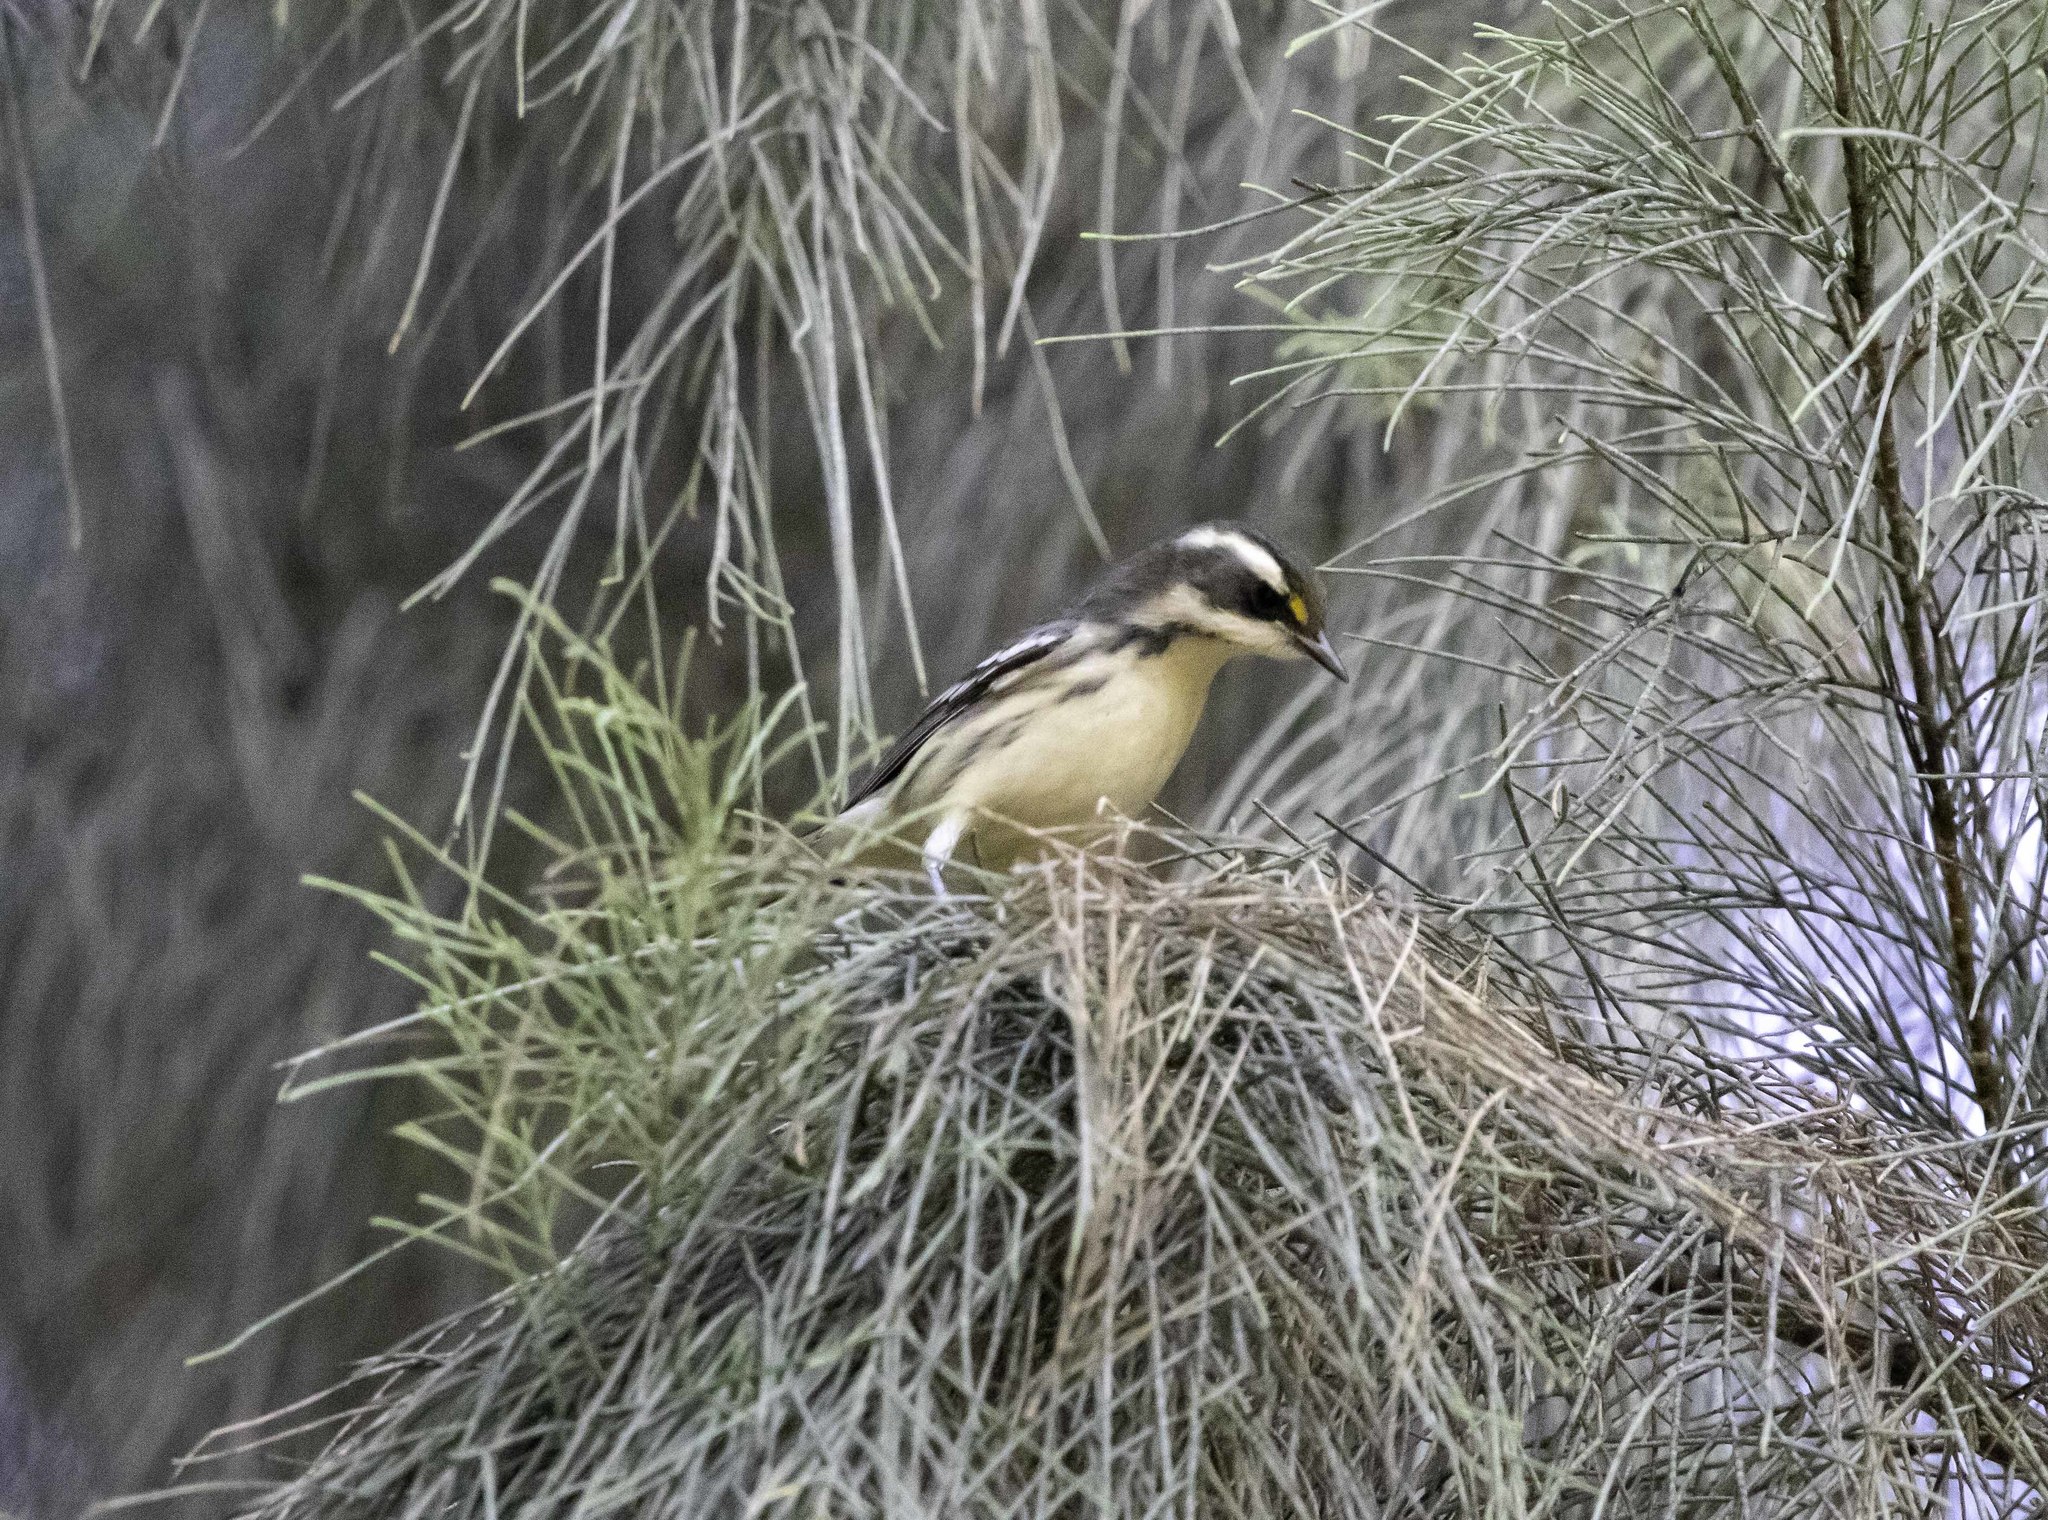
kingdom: Animalia
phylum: Chordata
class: Aves
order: Passeriformes
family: Parulidae
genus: Setophaga
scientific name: Setophaga nigrescens
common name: Black-throated gray warbler
